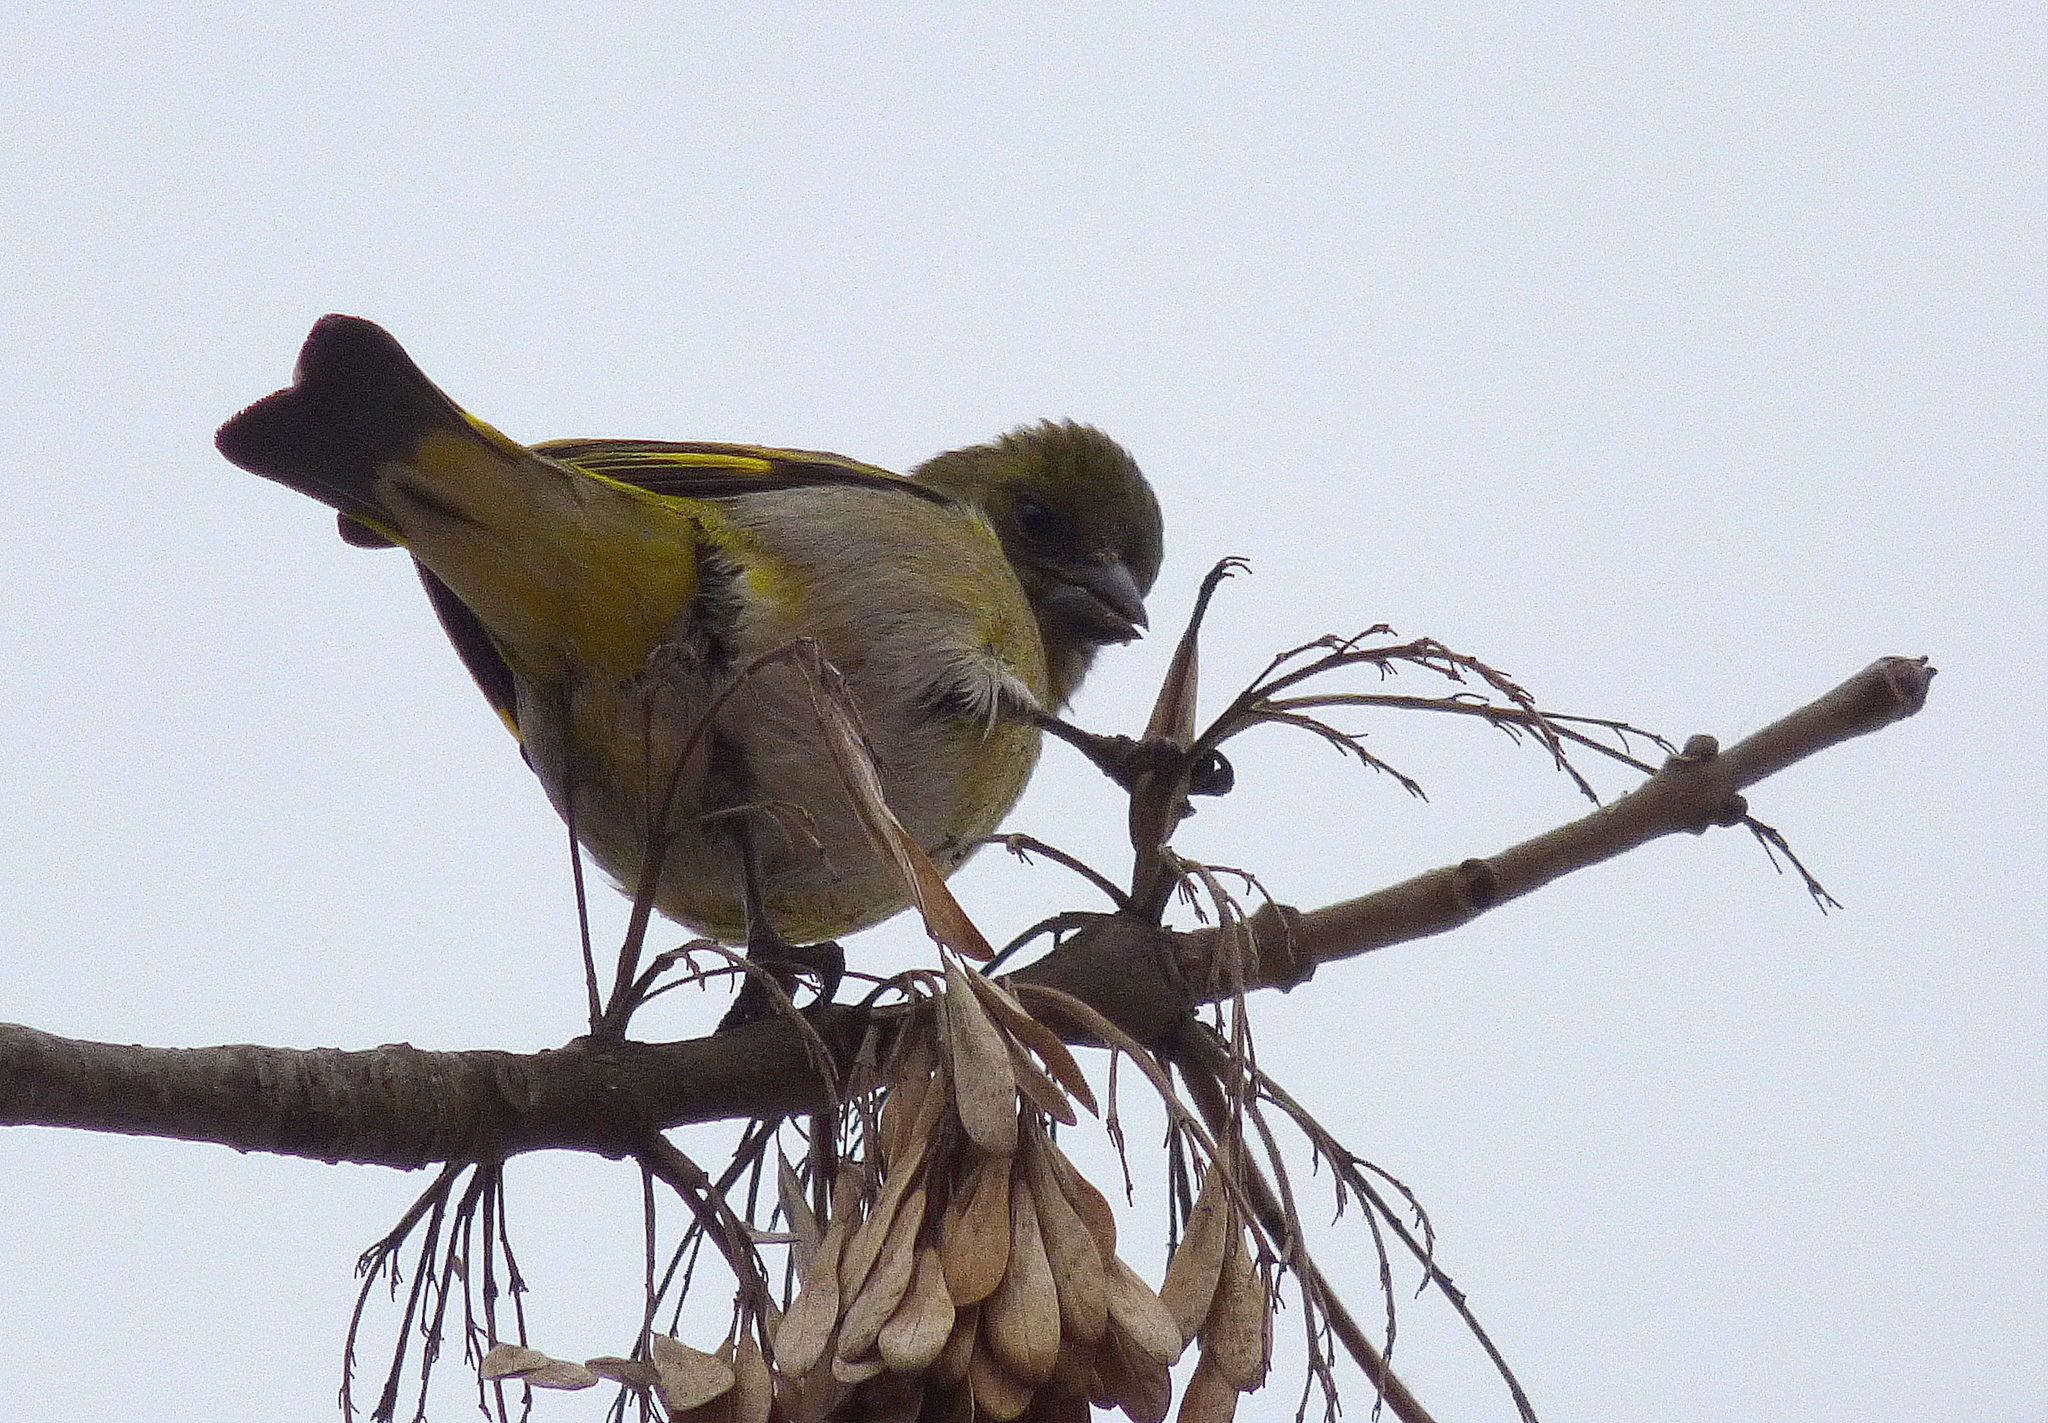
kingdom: Animalia
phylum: Chordata
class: Aves
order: Passeriformes
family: Fringillidae
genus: Spinus
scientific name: Spinus magellanicus
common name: Hooded siskin
